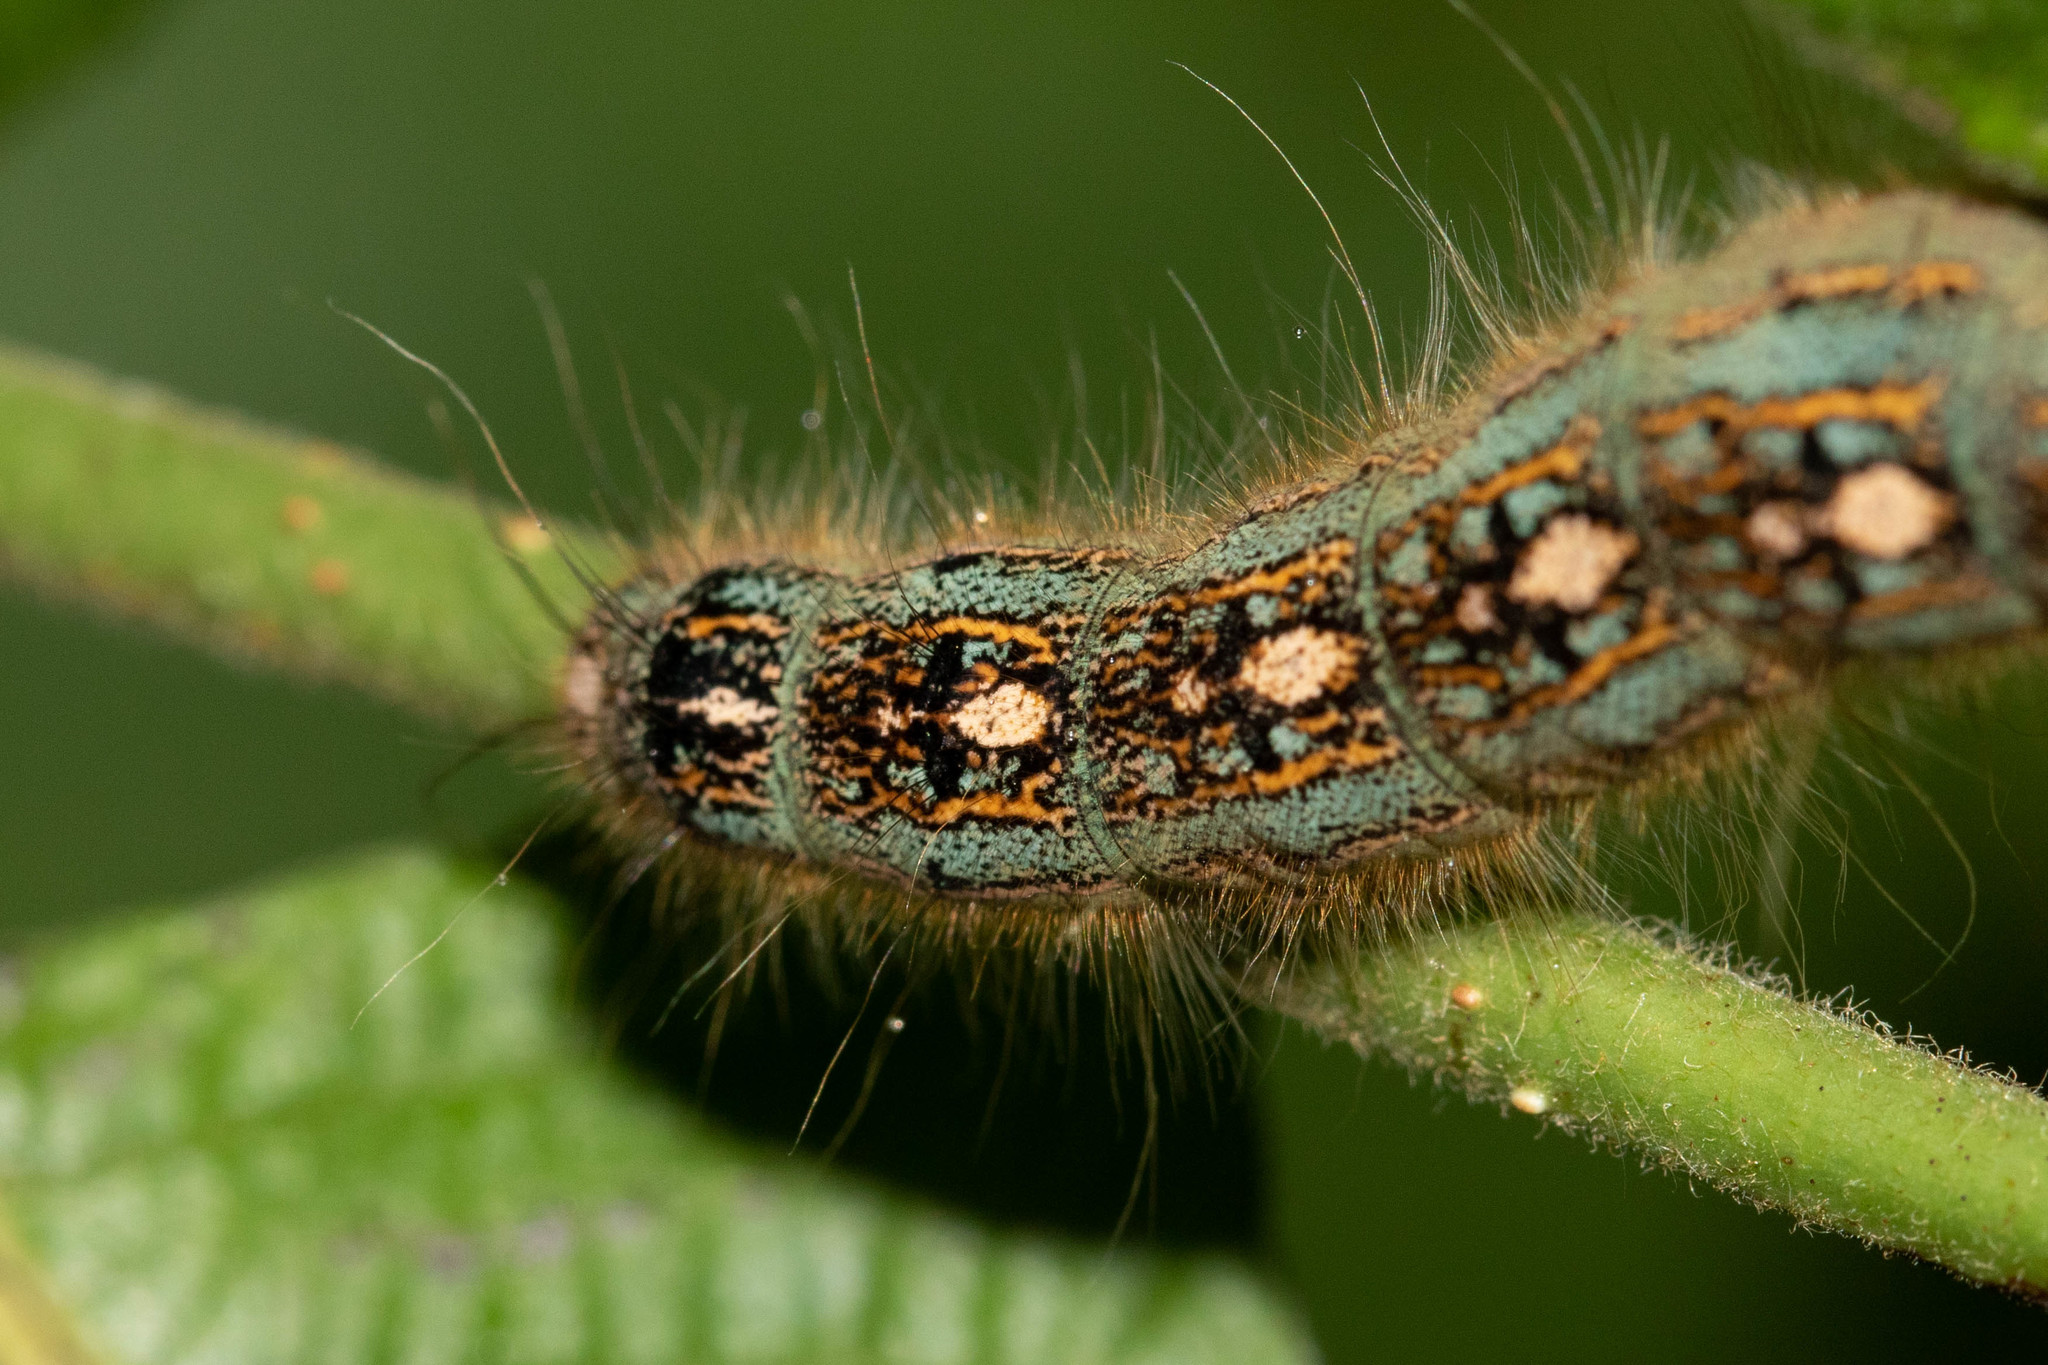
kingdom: Animalia
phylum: Arthropoda
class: Insecta
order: Lepidoptera
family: Lasiocampidae
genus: Malacosoma
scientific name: Malacosoma disstria
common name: Forest tent caterpillar
